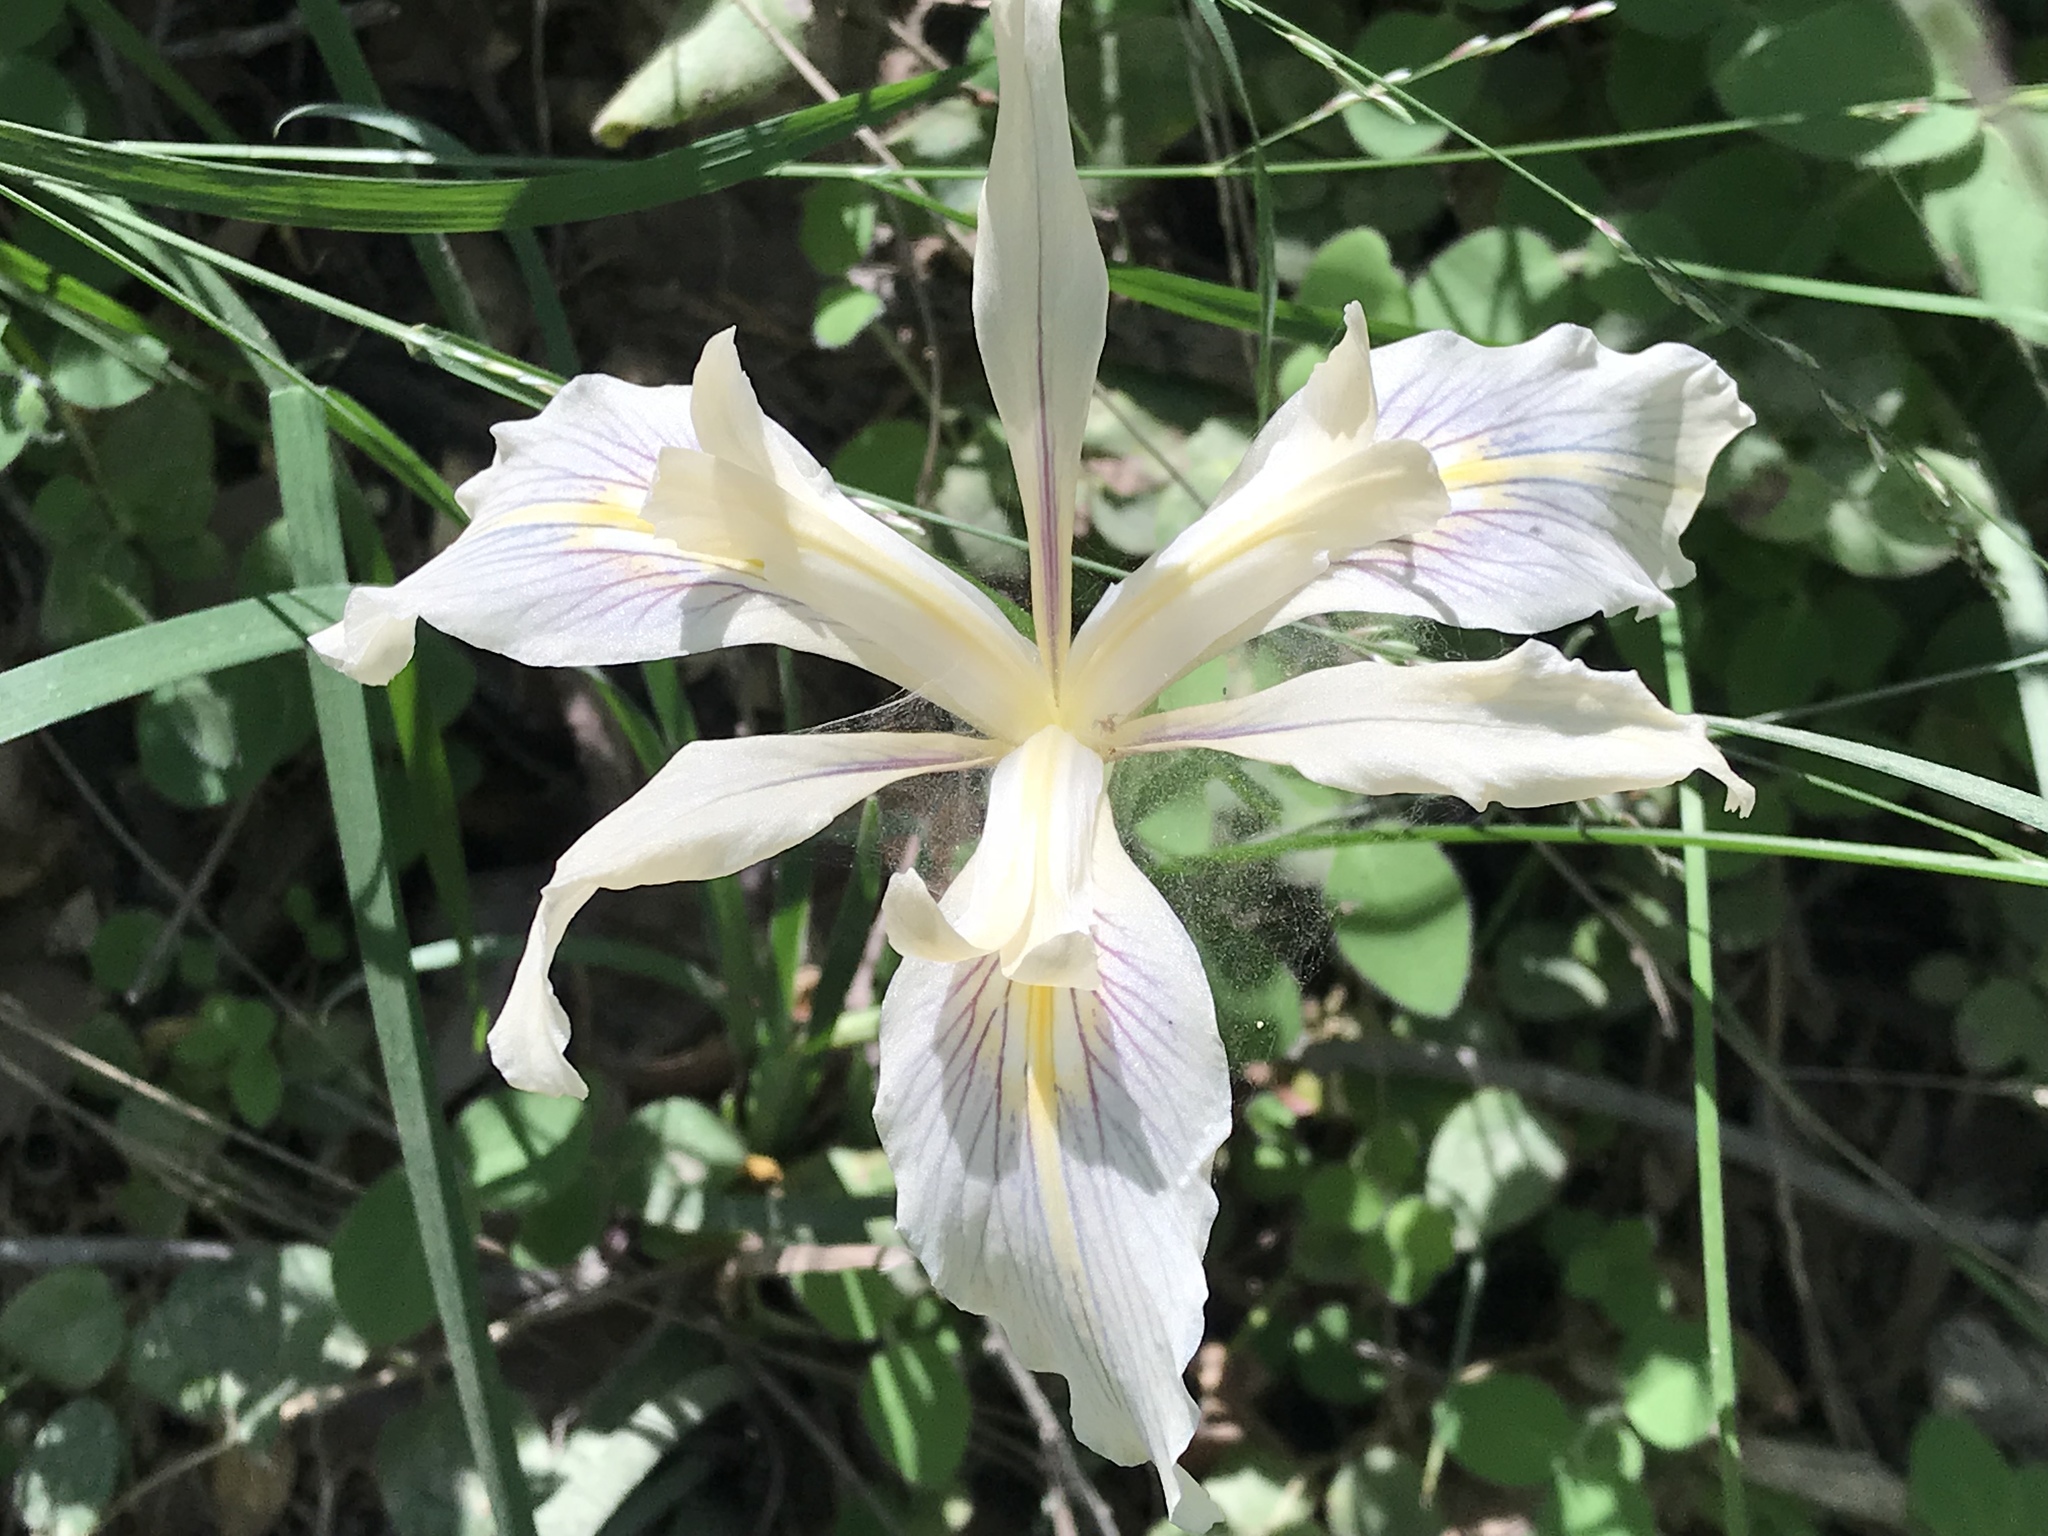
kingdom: Plantae
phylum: Tracheophyta
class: Liliopsida
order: Asparagales
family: Iridaceae
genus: Iris
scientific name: Iris fernaldii
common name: Fernald's iris
